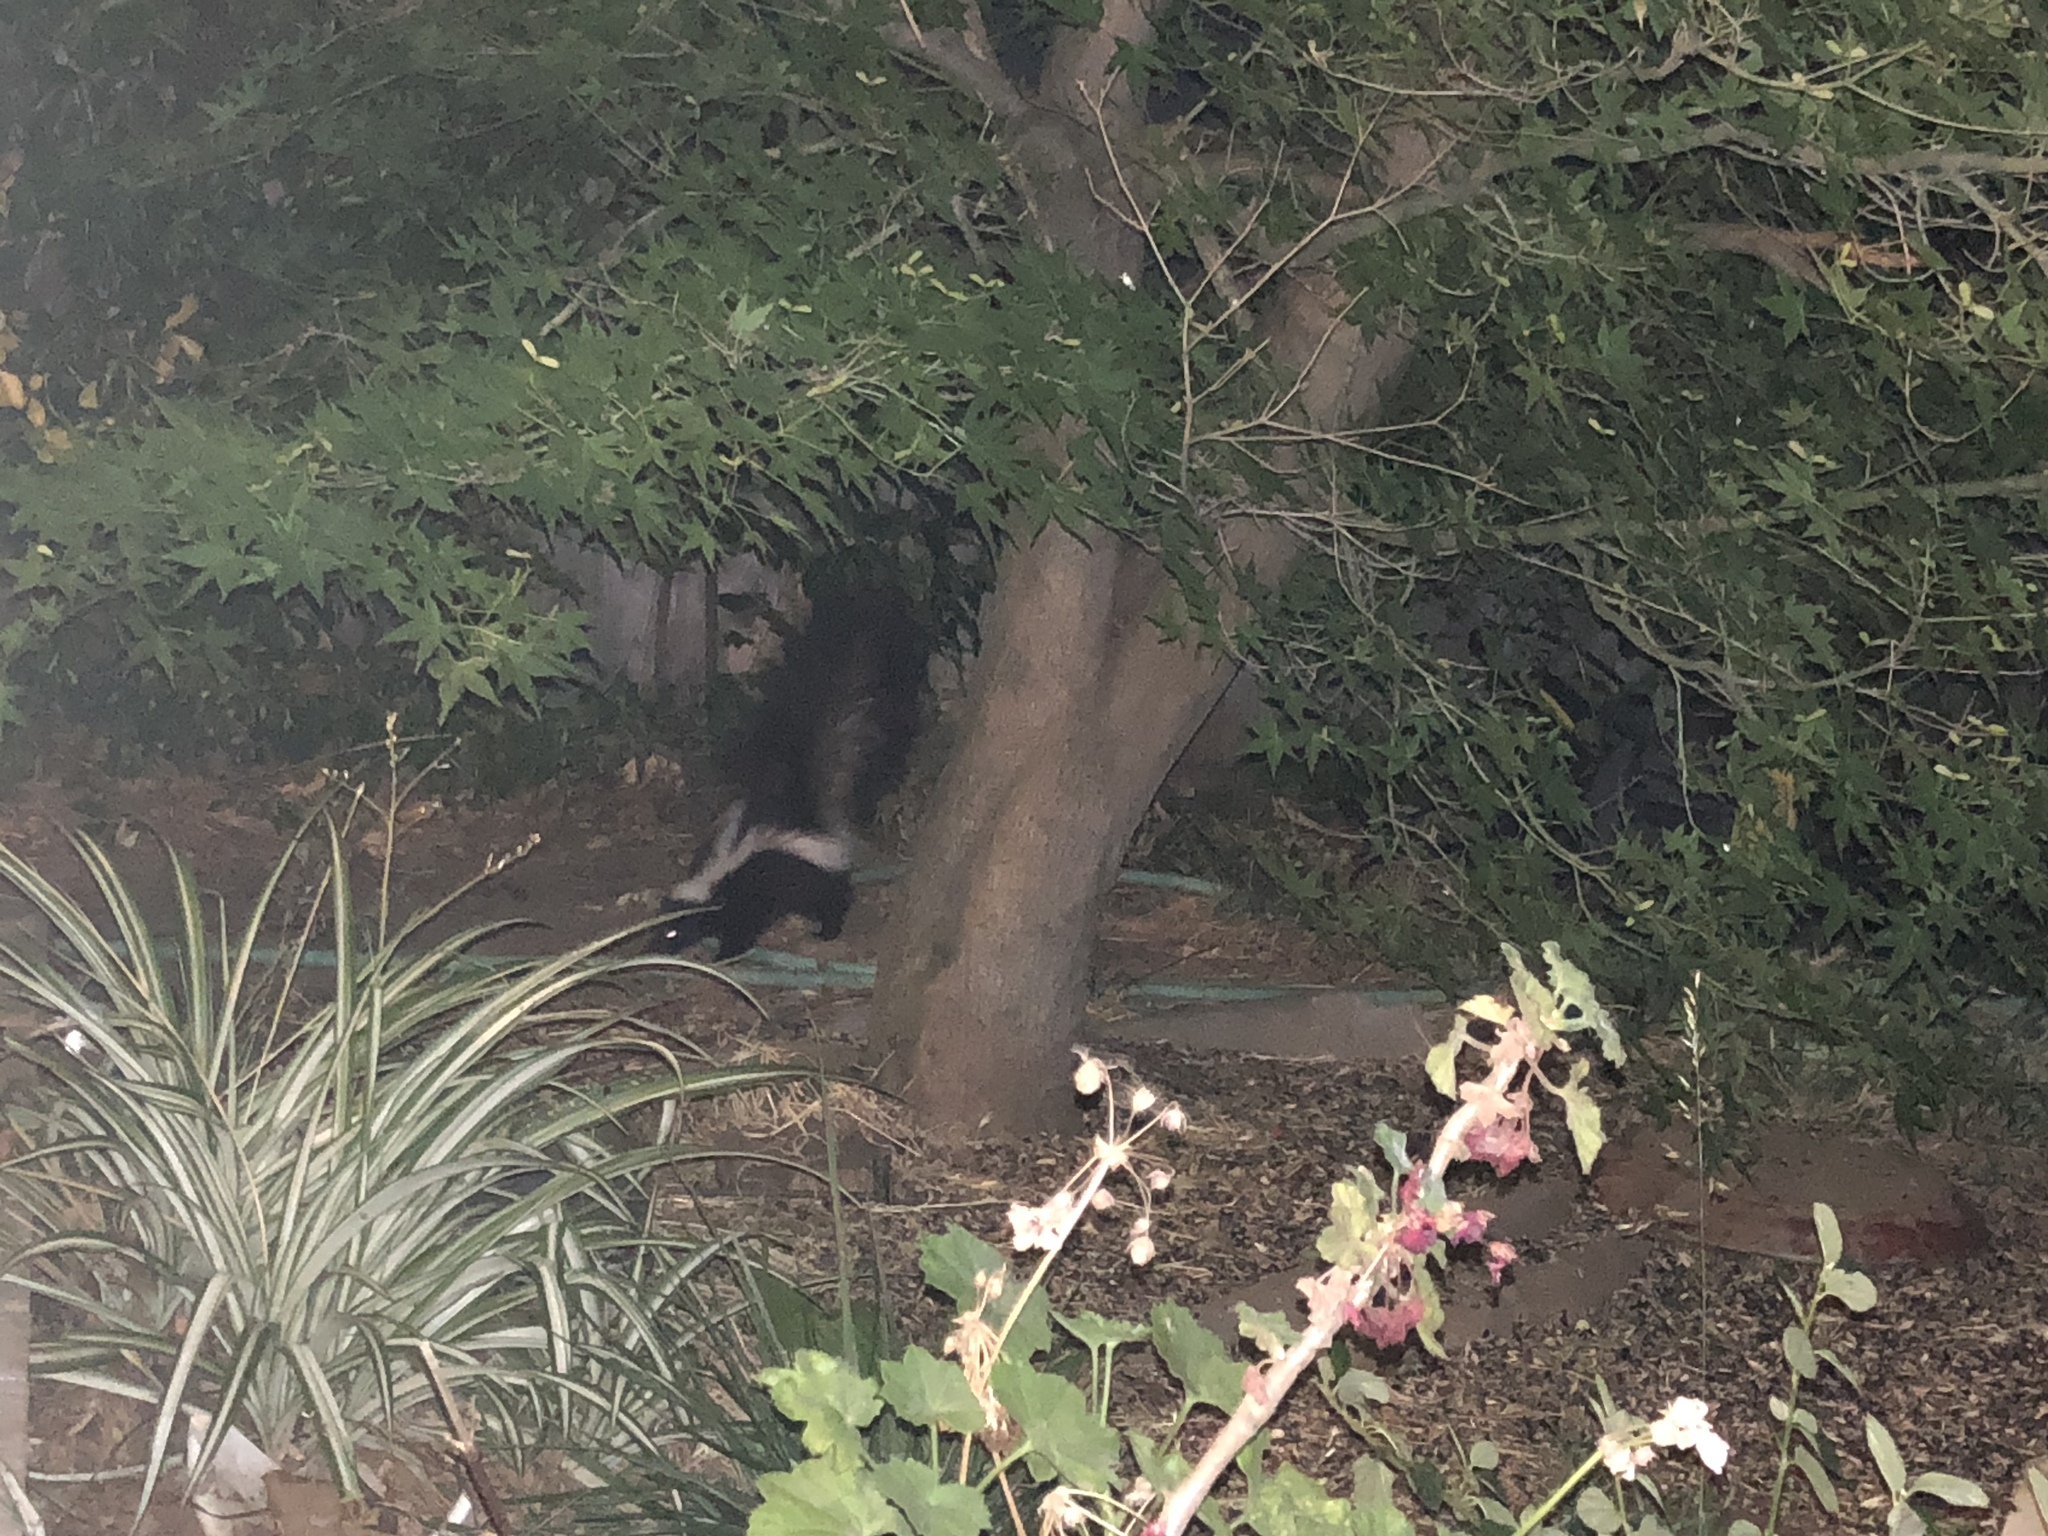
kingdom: Animalia
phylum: Chordata
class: Mammalia
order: Carnivora
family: Mephitidae
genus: Mephitis
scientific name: Mephitis mephitis
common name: Striped skunk
